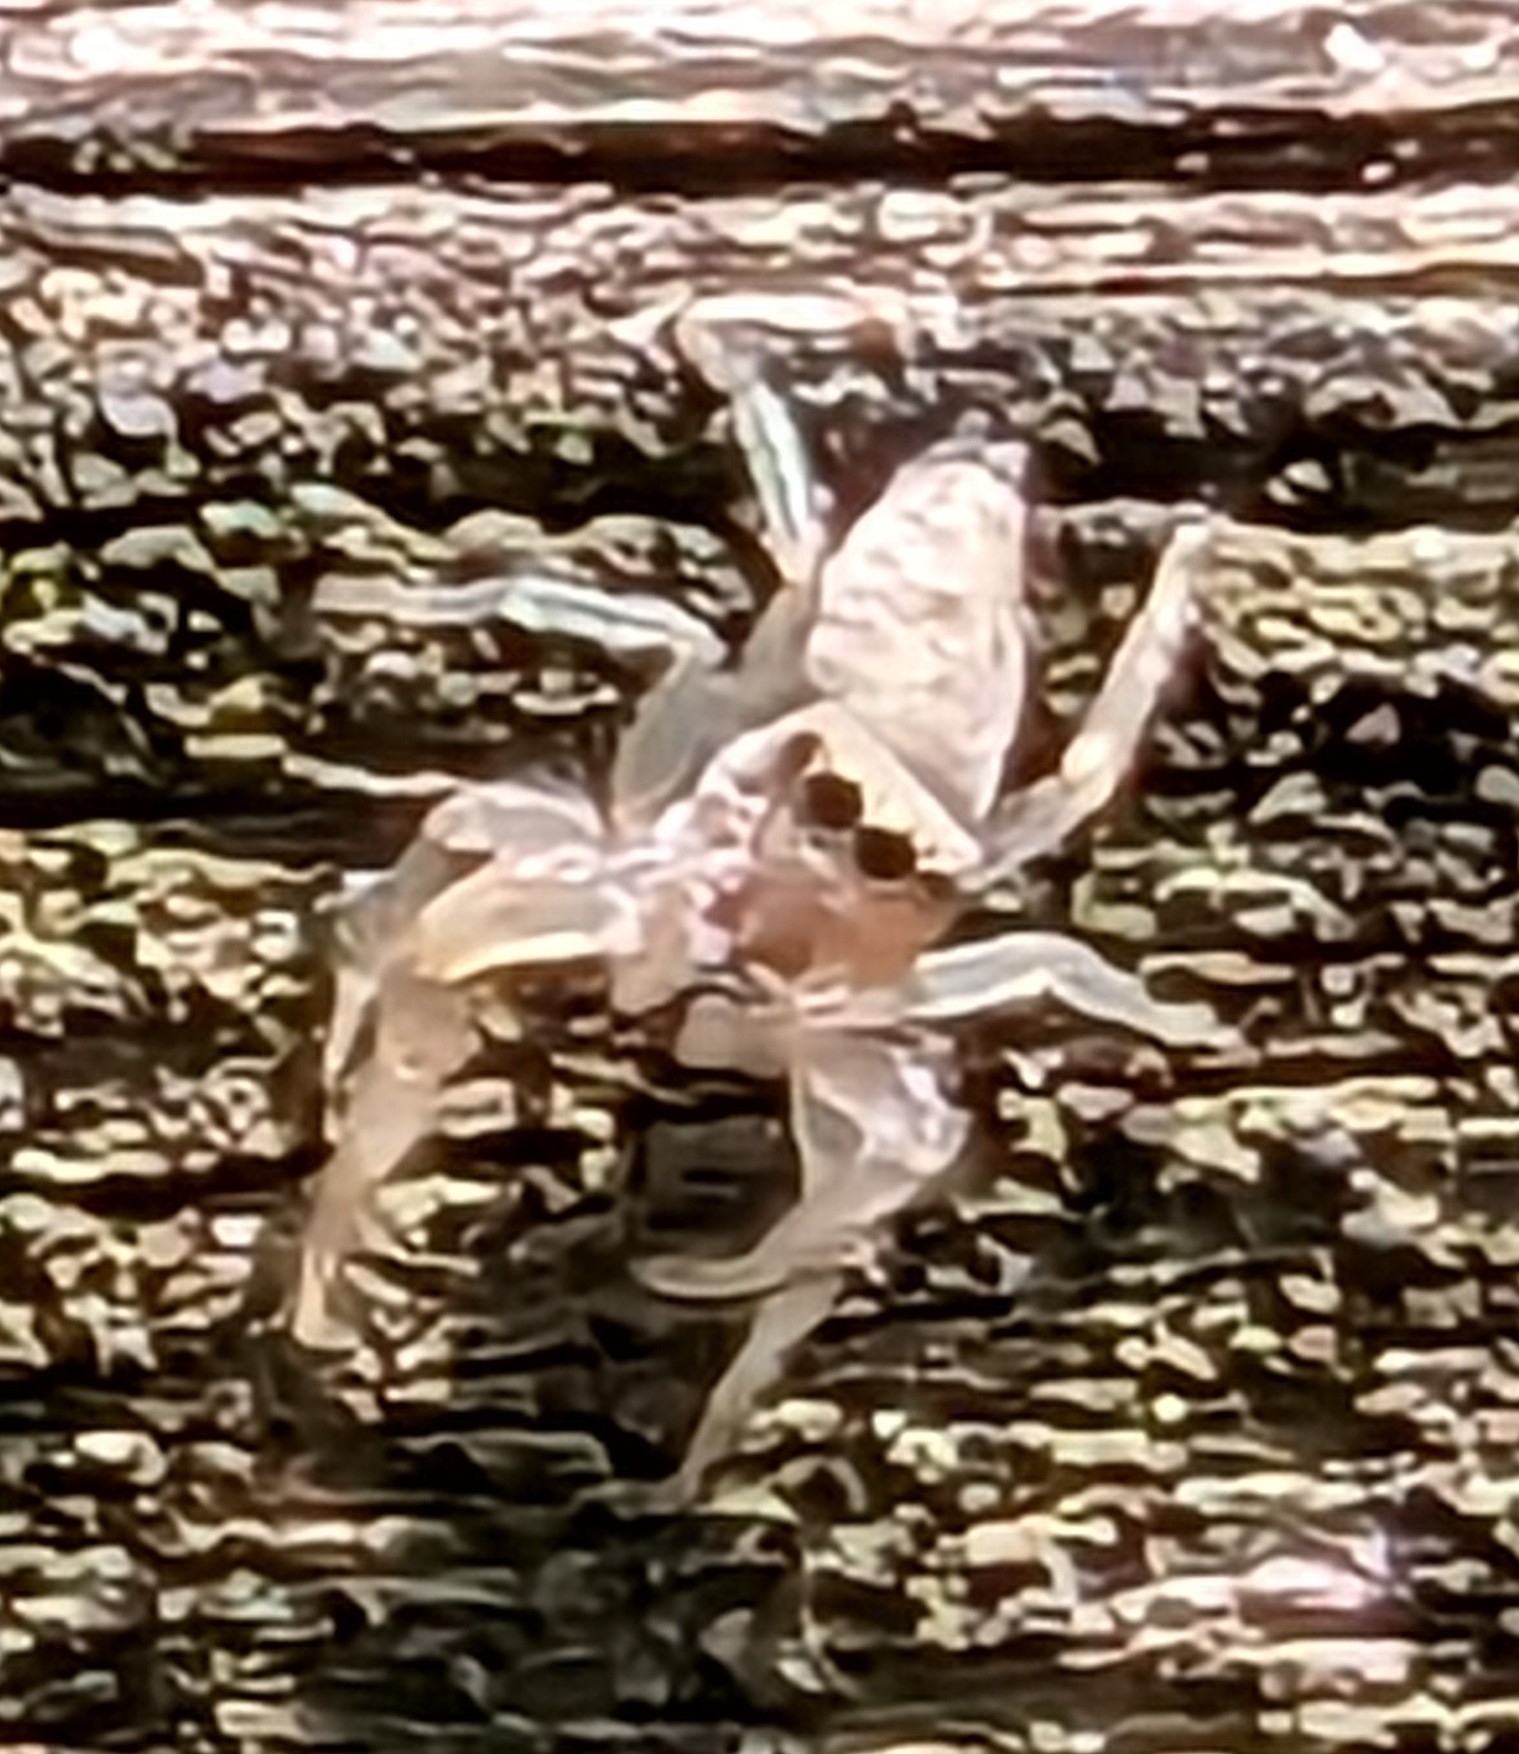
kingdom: Animalia
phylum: Arthropoda
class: Arachnida
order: Araneae
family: Salticidae
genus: Hentzia
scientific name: Hentzia mitrata
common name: White-jawed jumping spider
